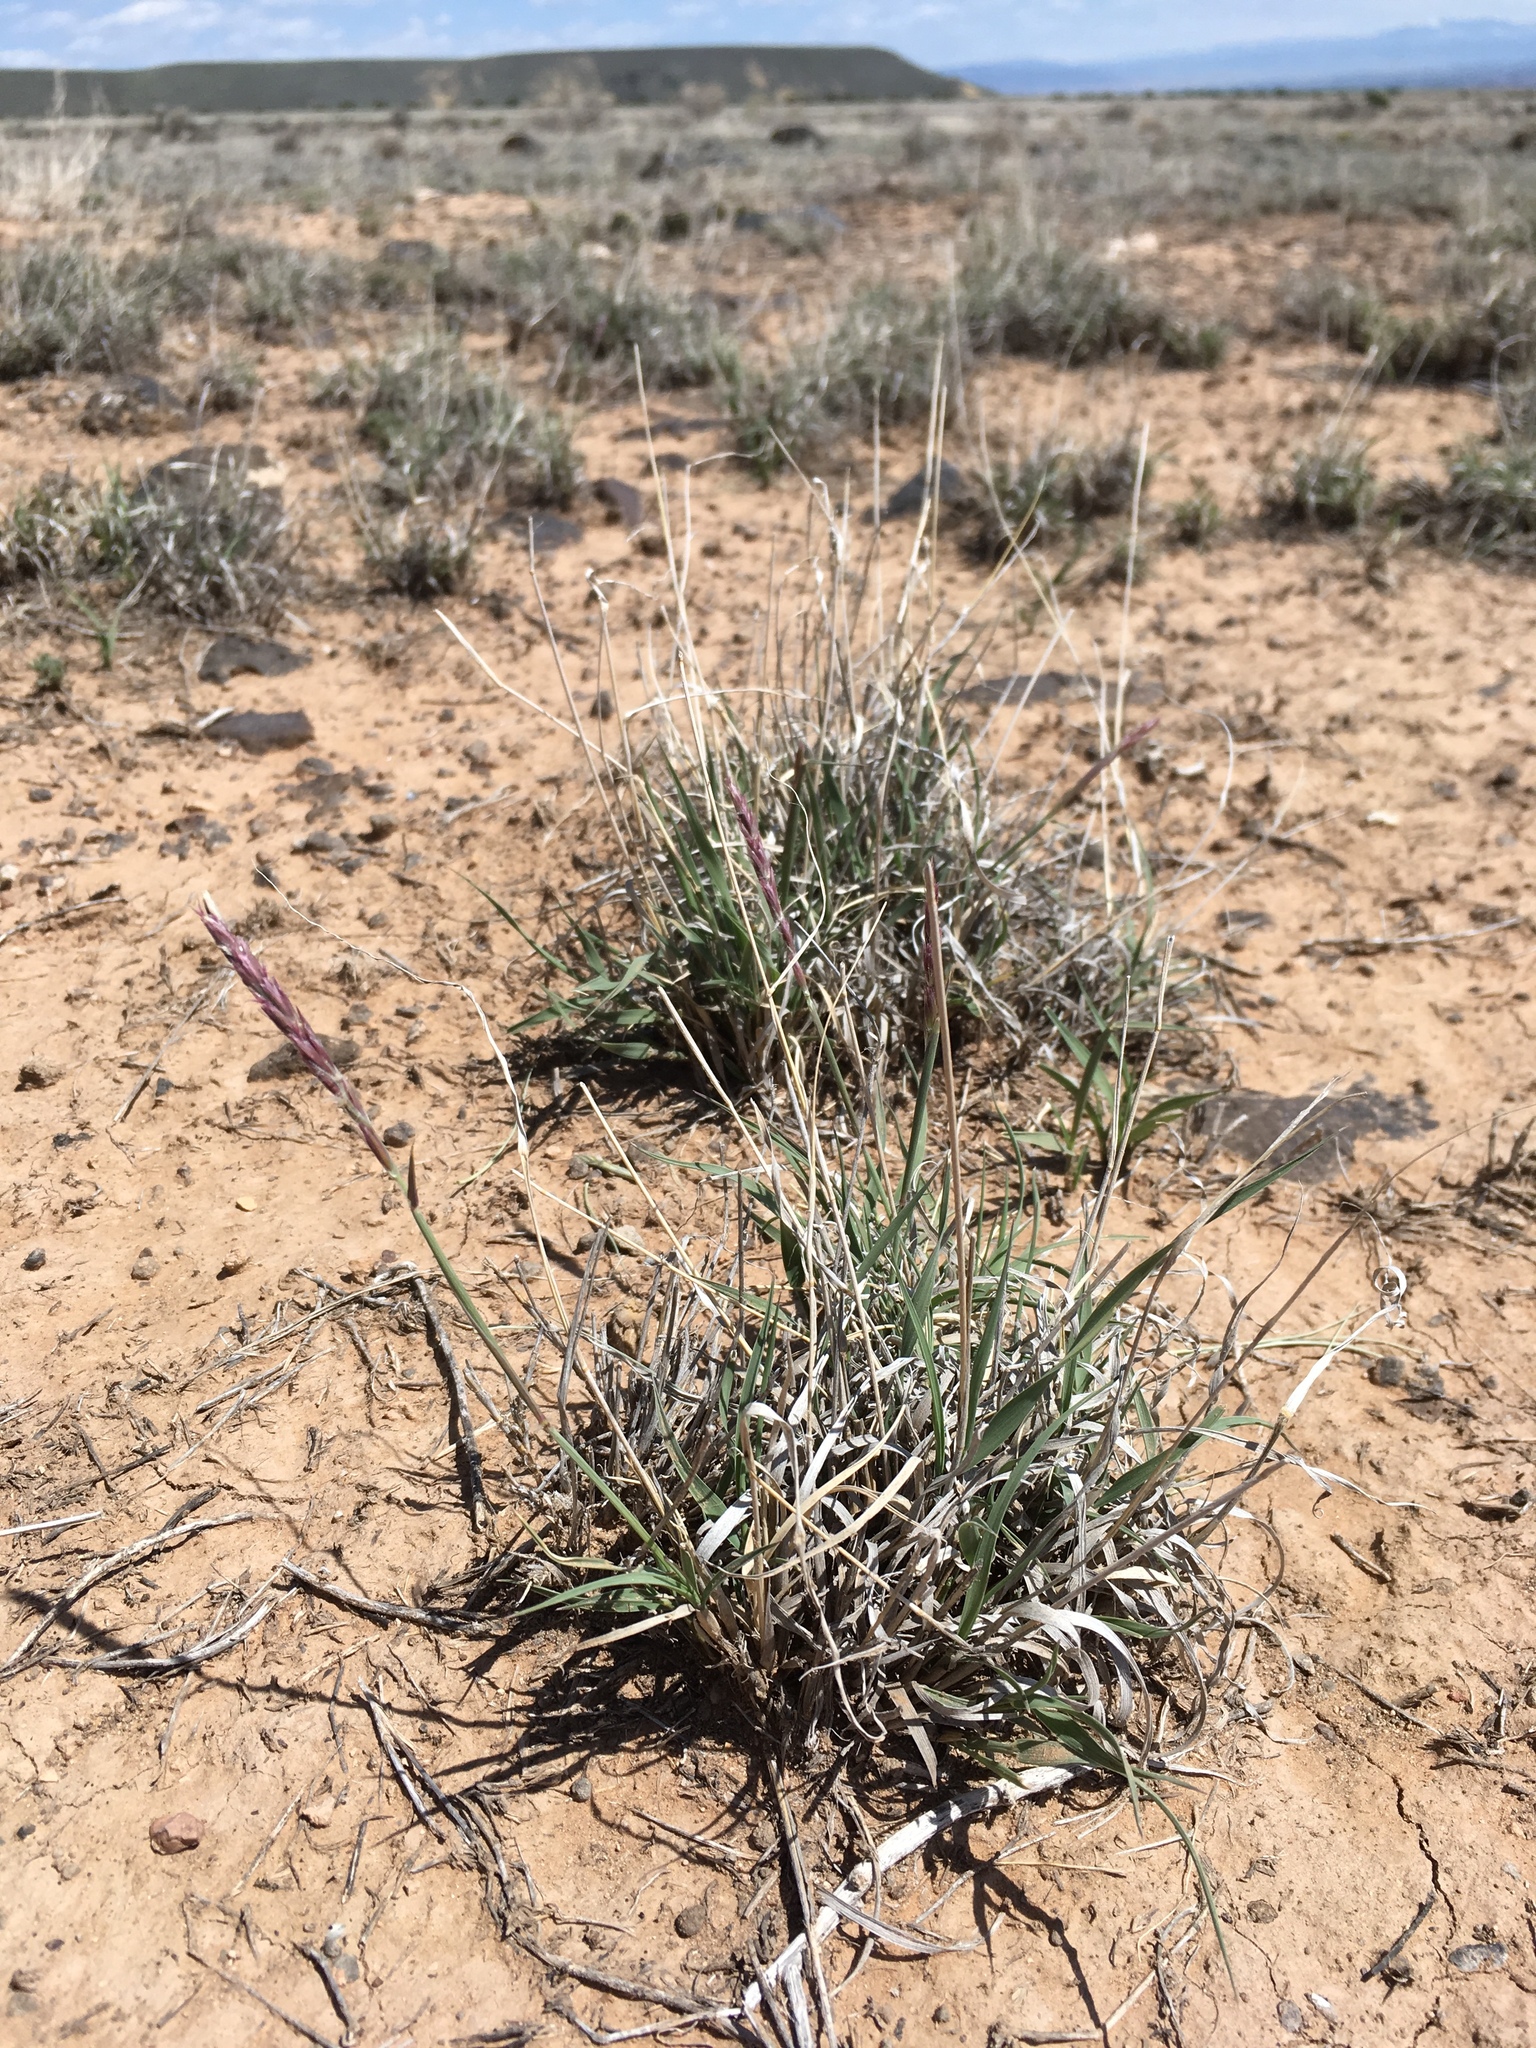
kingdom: Plantae
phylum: Tracheophyta
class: Liliopsida
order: Poales
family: Poaceae
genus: Hilaria
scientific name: Hilaria jamesii
